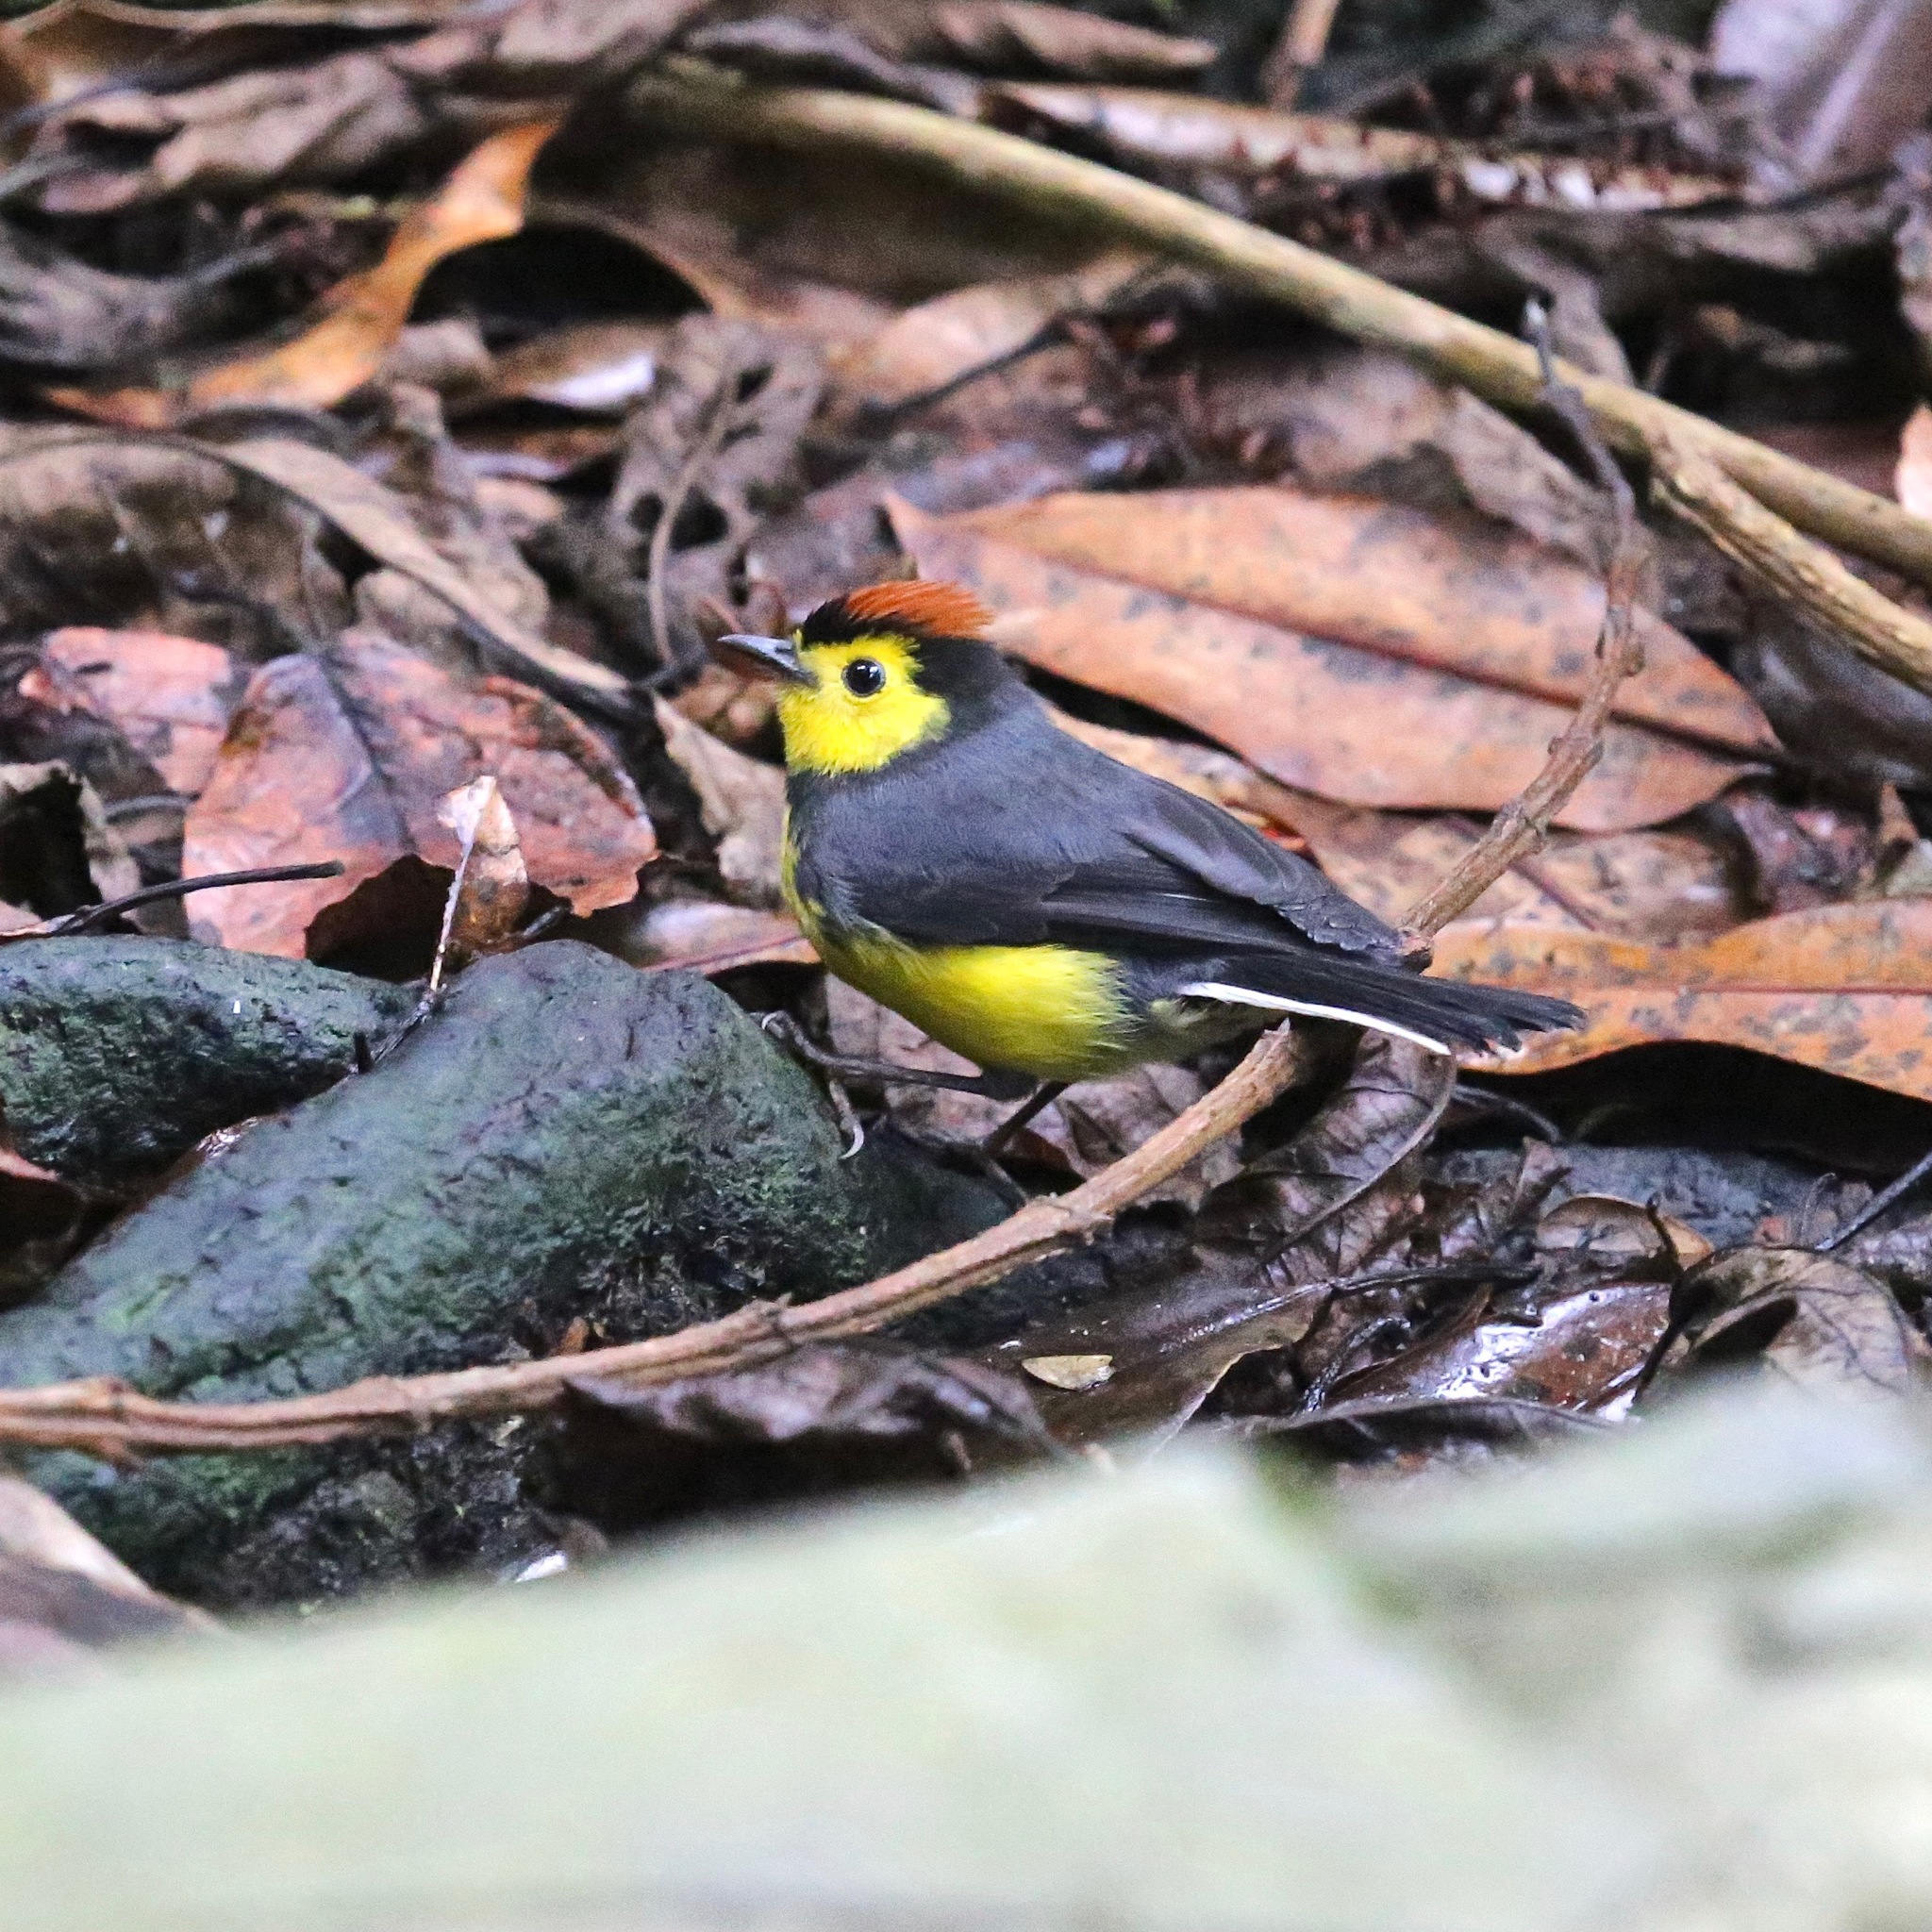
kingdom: Animalia
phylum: Chordata
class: Aves
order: Passeriformes
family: Parulidae
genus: Myioborus
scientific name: Myioborus torquatus
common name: Collared whitestart
